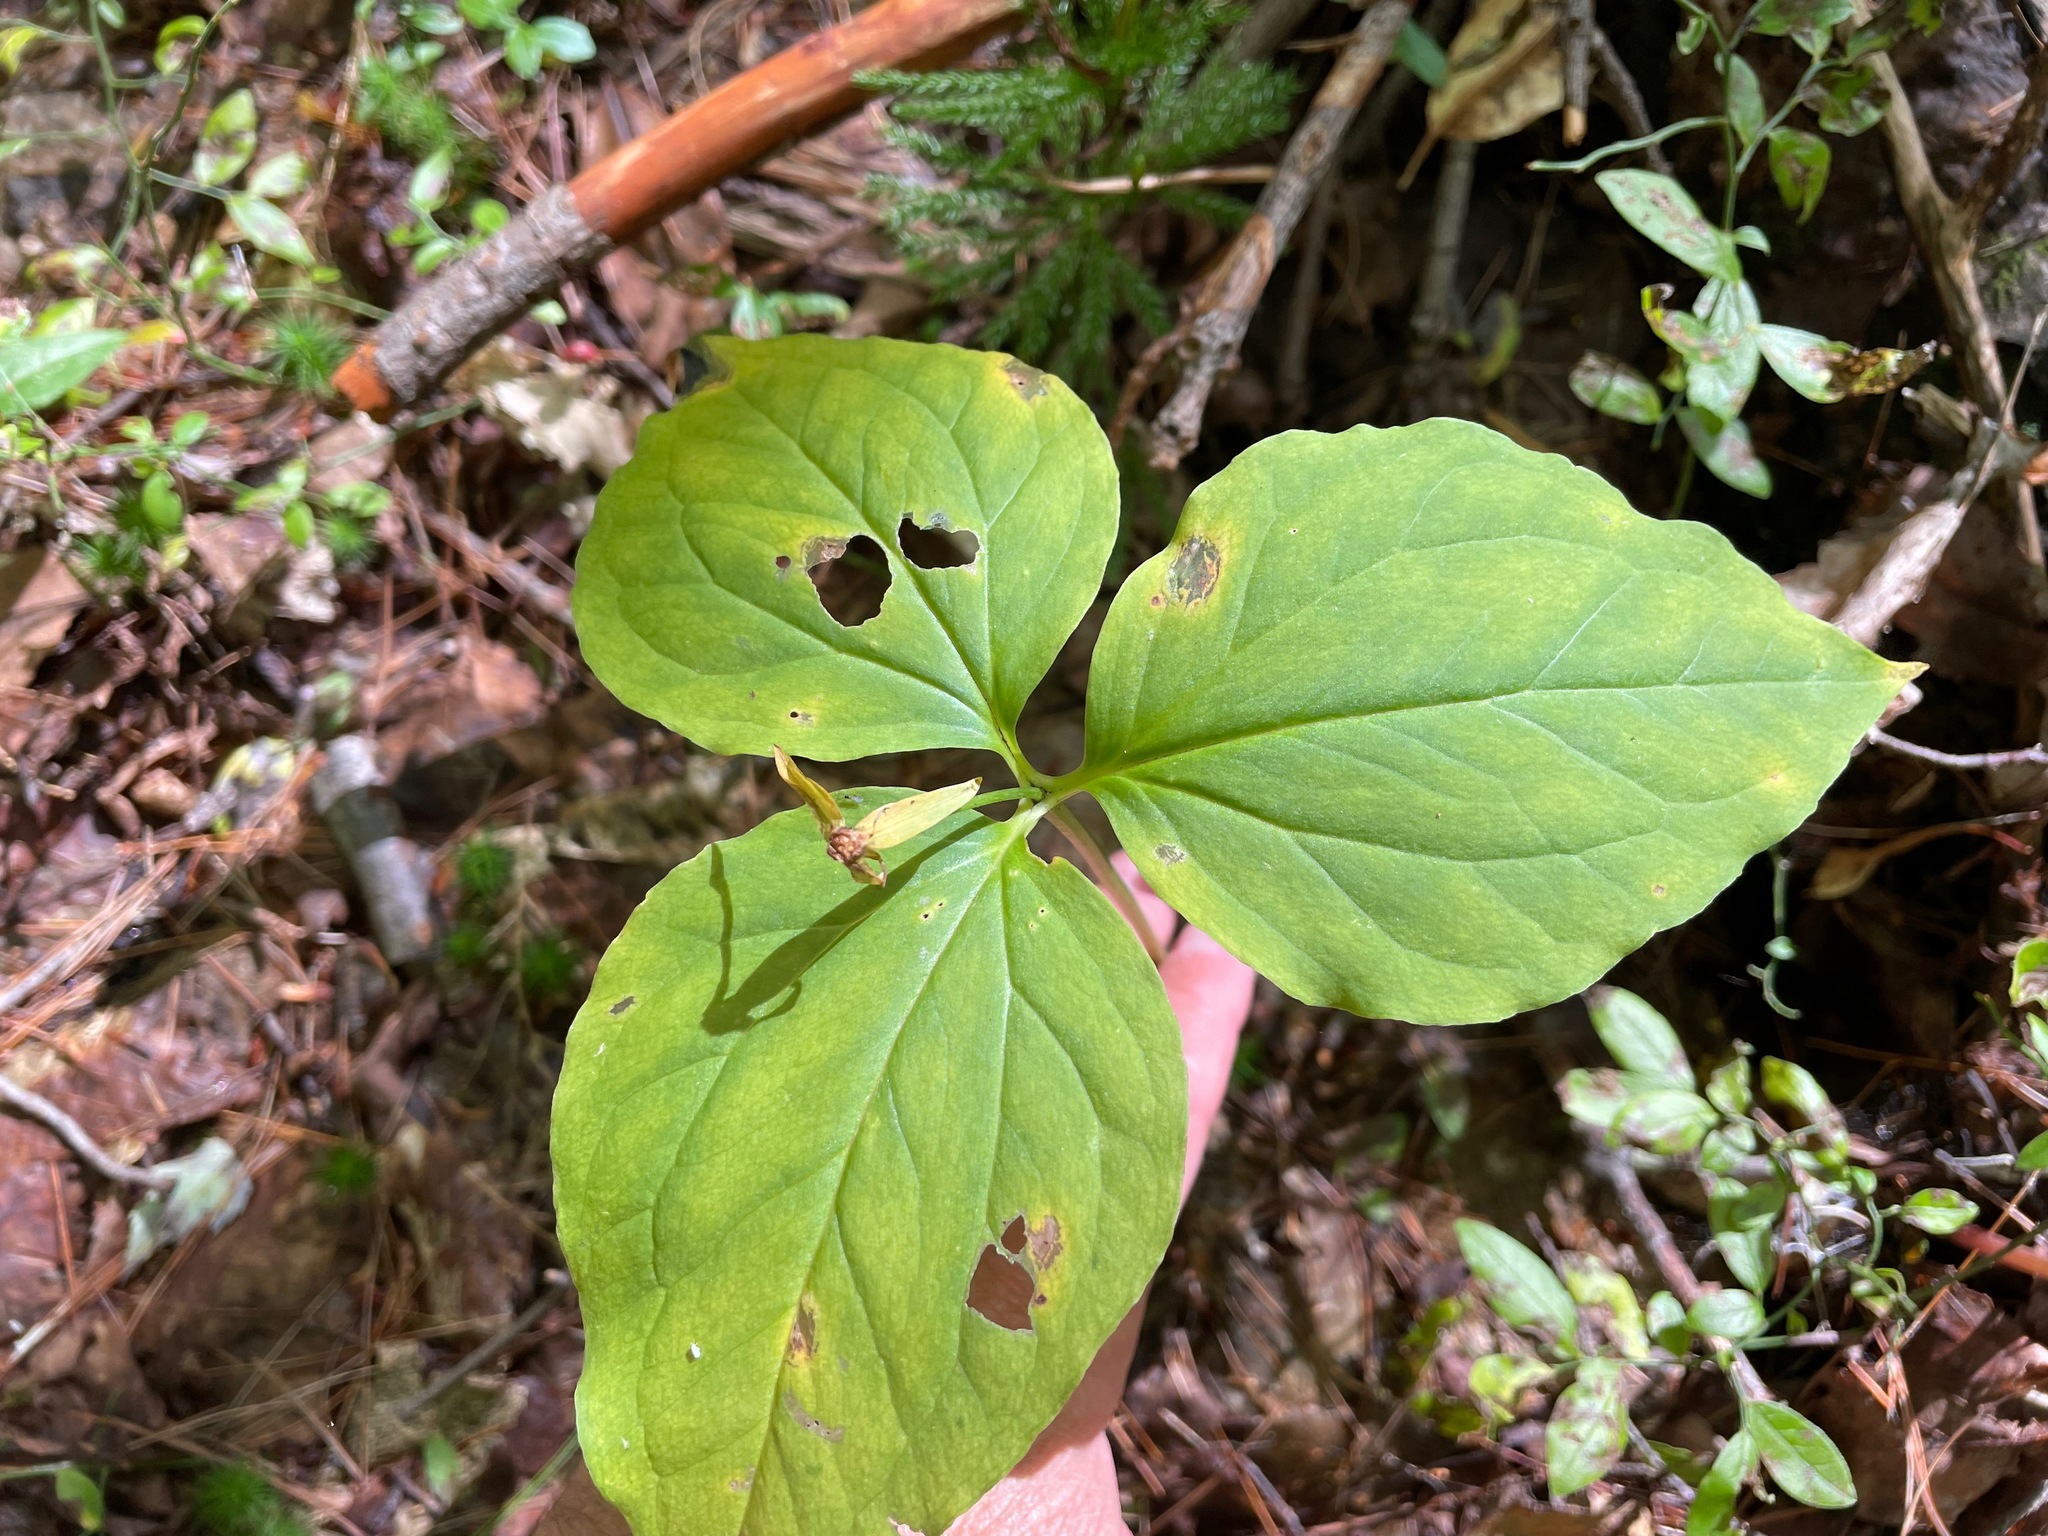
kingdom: Plantae
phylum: Tracheophyta
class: Liliopsida
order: Liliales
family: Melanthiaceae
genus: Trillium
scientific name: Trillium undulatum
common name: Paint trillium
